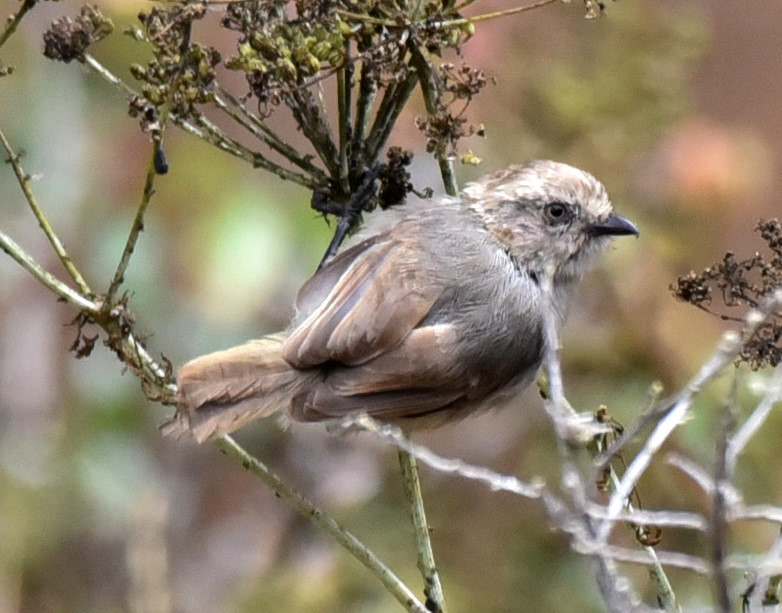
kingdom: Animalia
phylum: Chordata
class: Aves
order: Passeriformes
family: Aegithalidae
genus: Psaltriparus
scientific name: Psaltriparus minimus
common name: American bushtit
